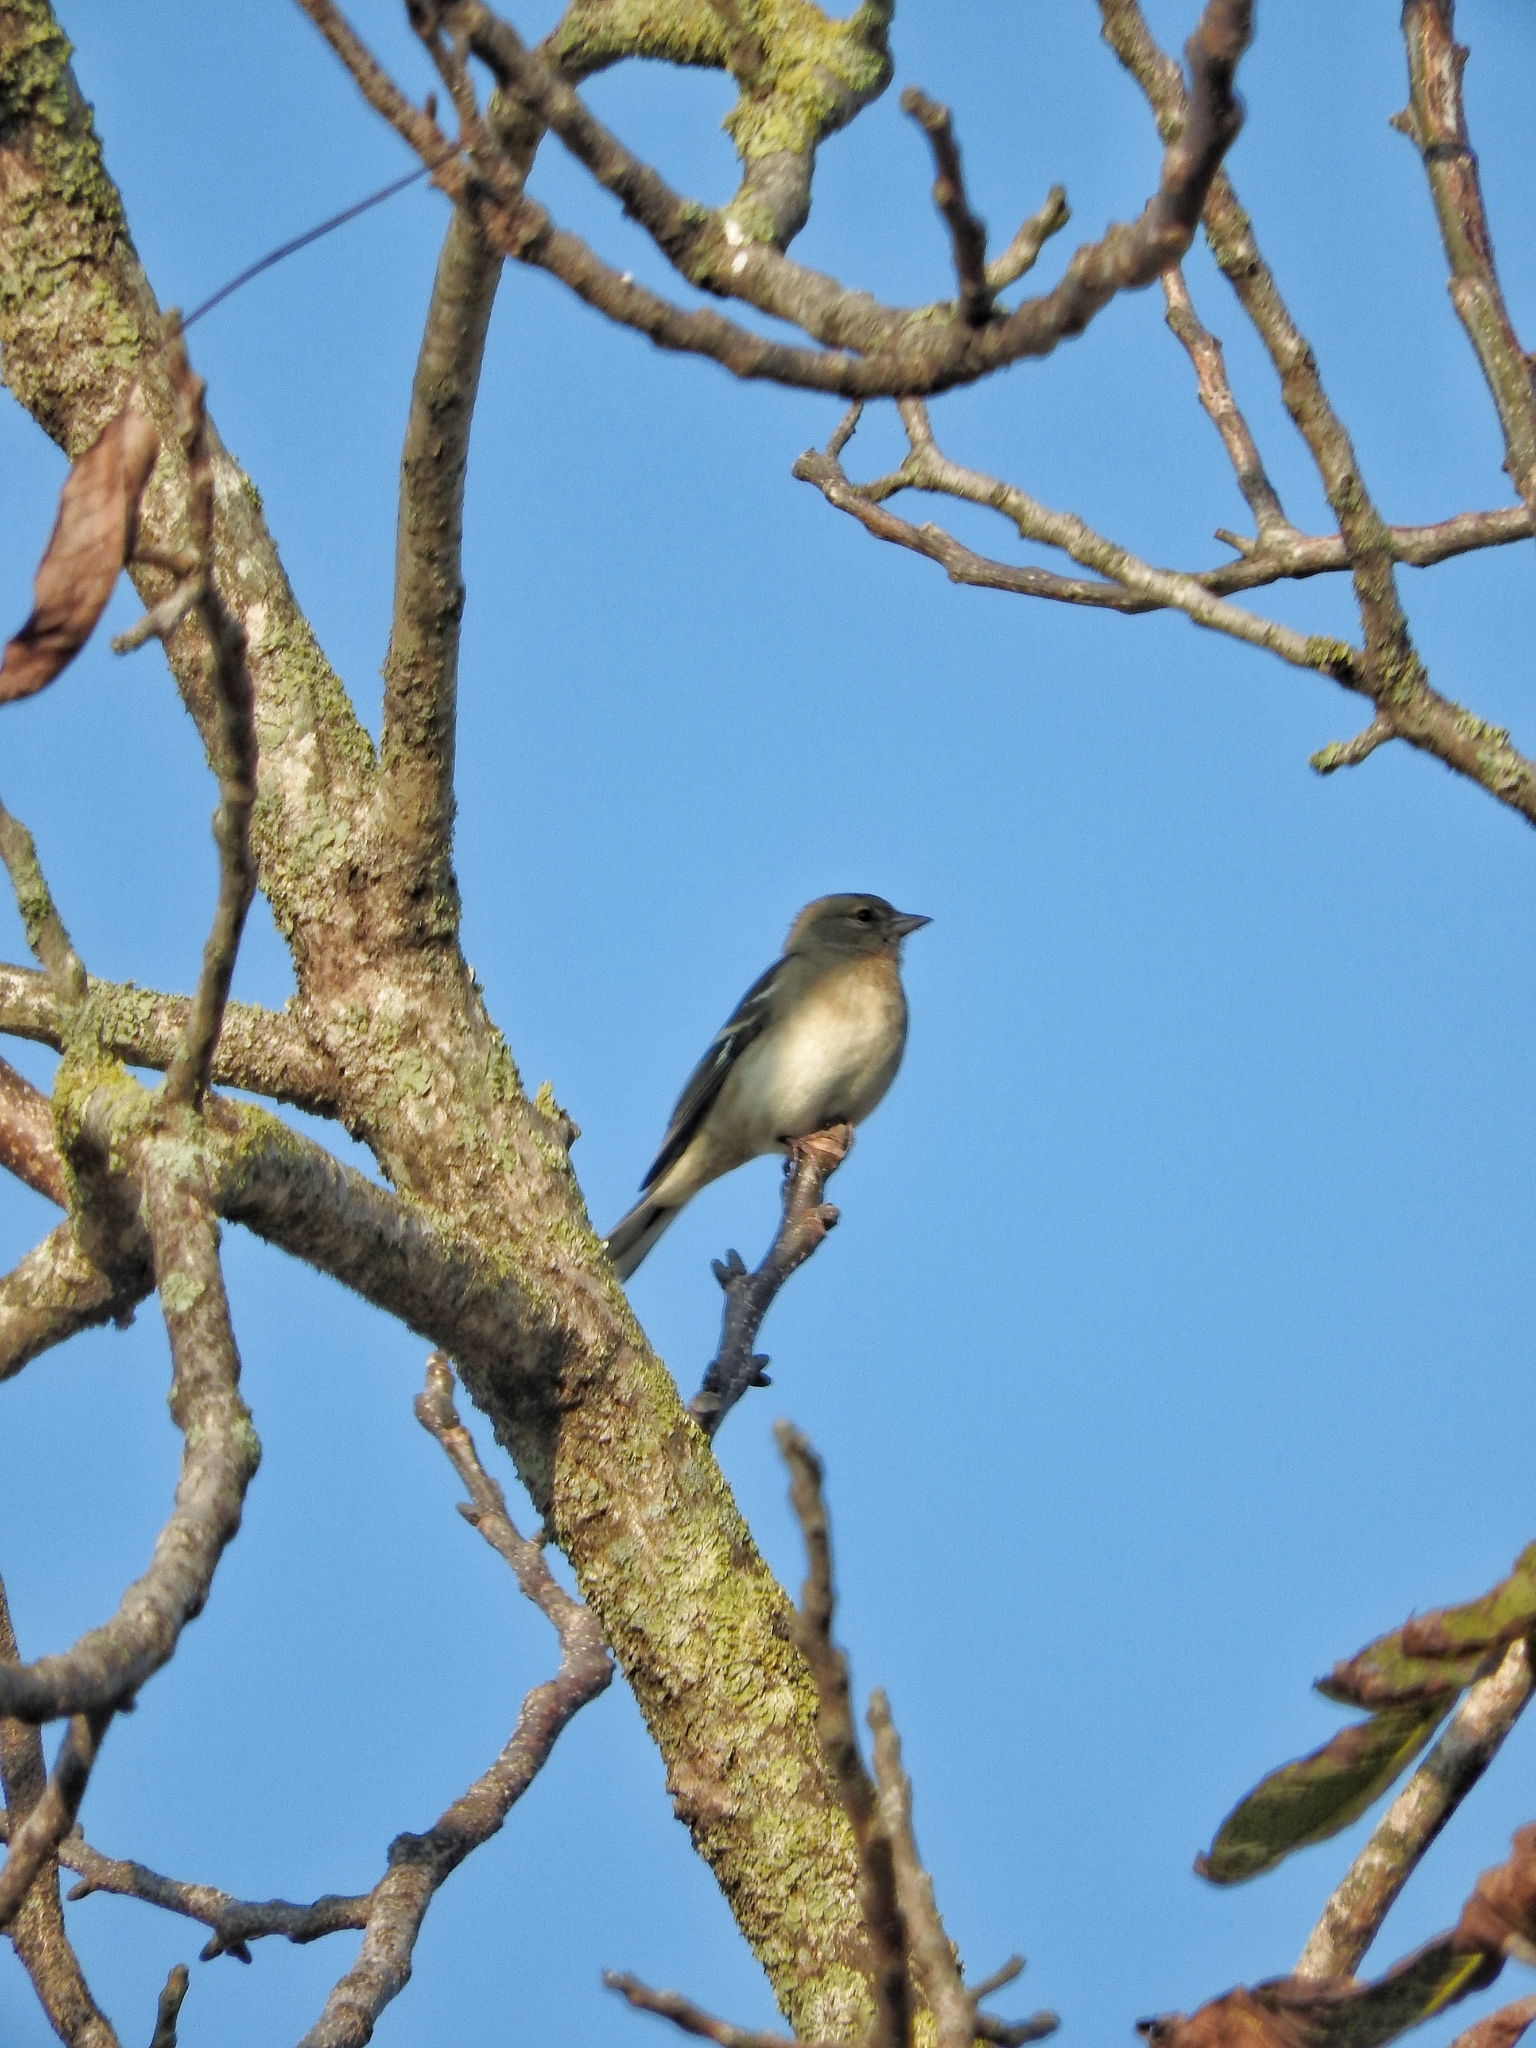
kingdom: Animalia
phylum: Chordata
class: Aves
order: Passeriformes
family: Fringillidae
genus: Fringilla
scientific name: Fringilla coelebs
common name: Common chaffinch
